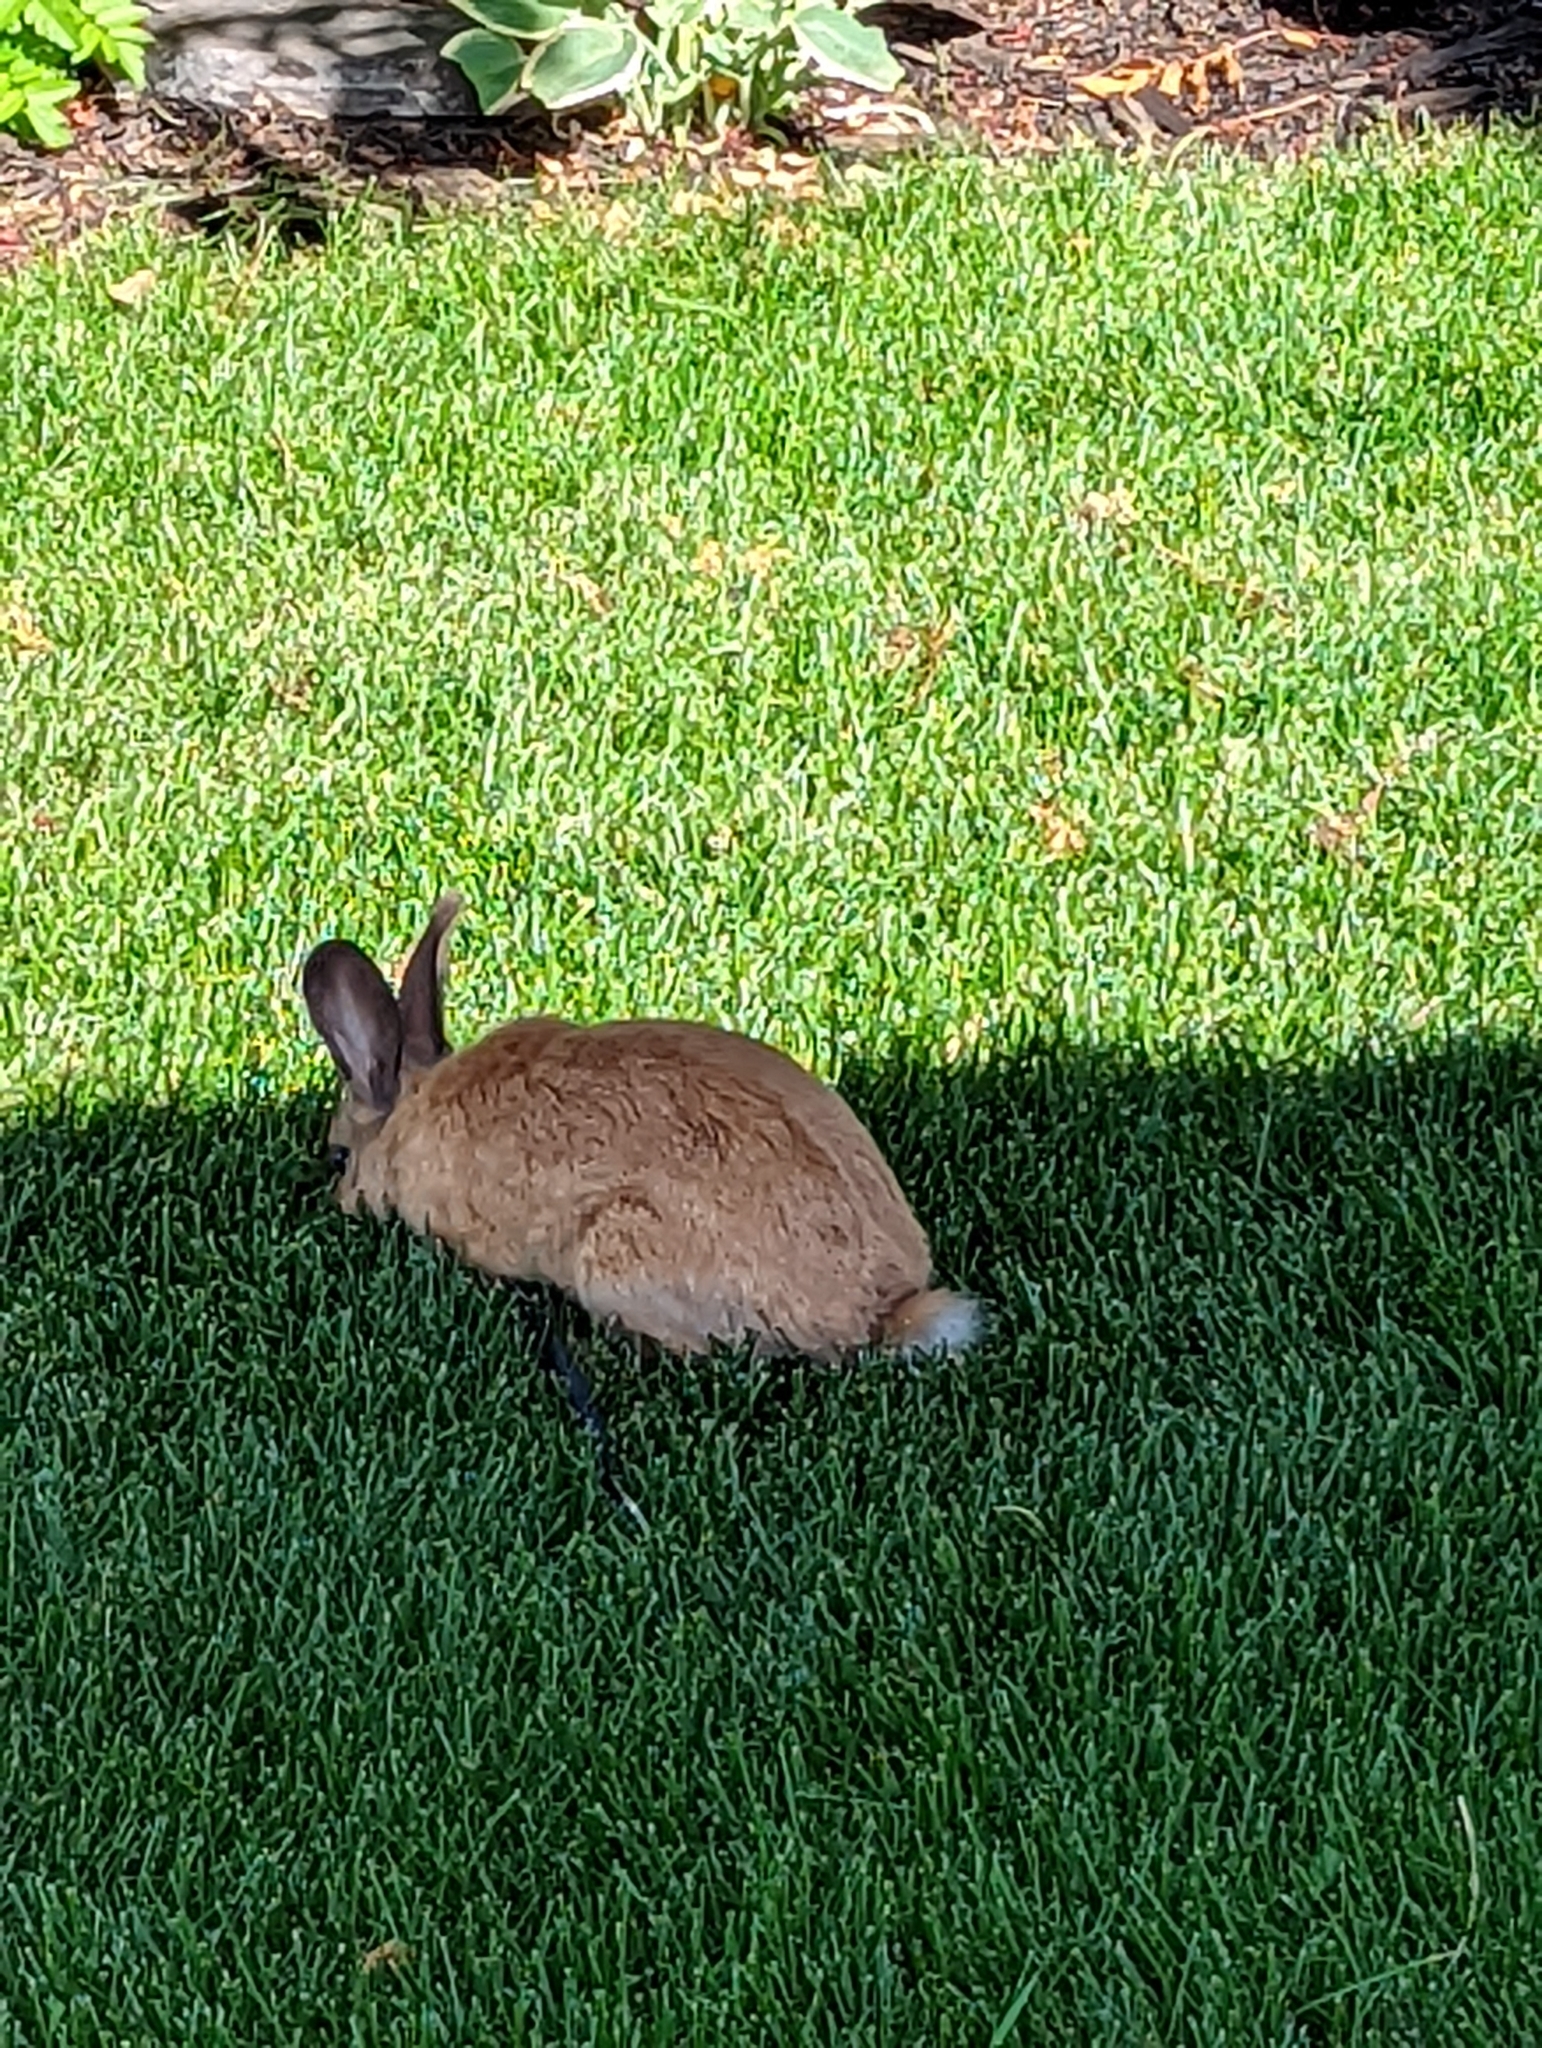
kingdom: Animalia
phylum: Chordata
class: Mammalia
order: Lagomorpha
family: Leporidae
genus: Oryctolagus
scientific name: Oryctolagus cuniculus
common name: European rabbit
